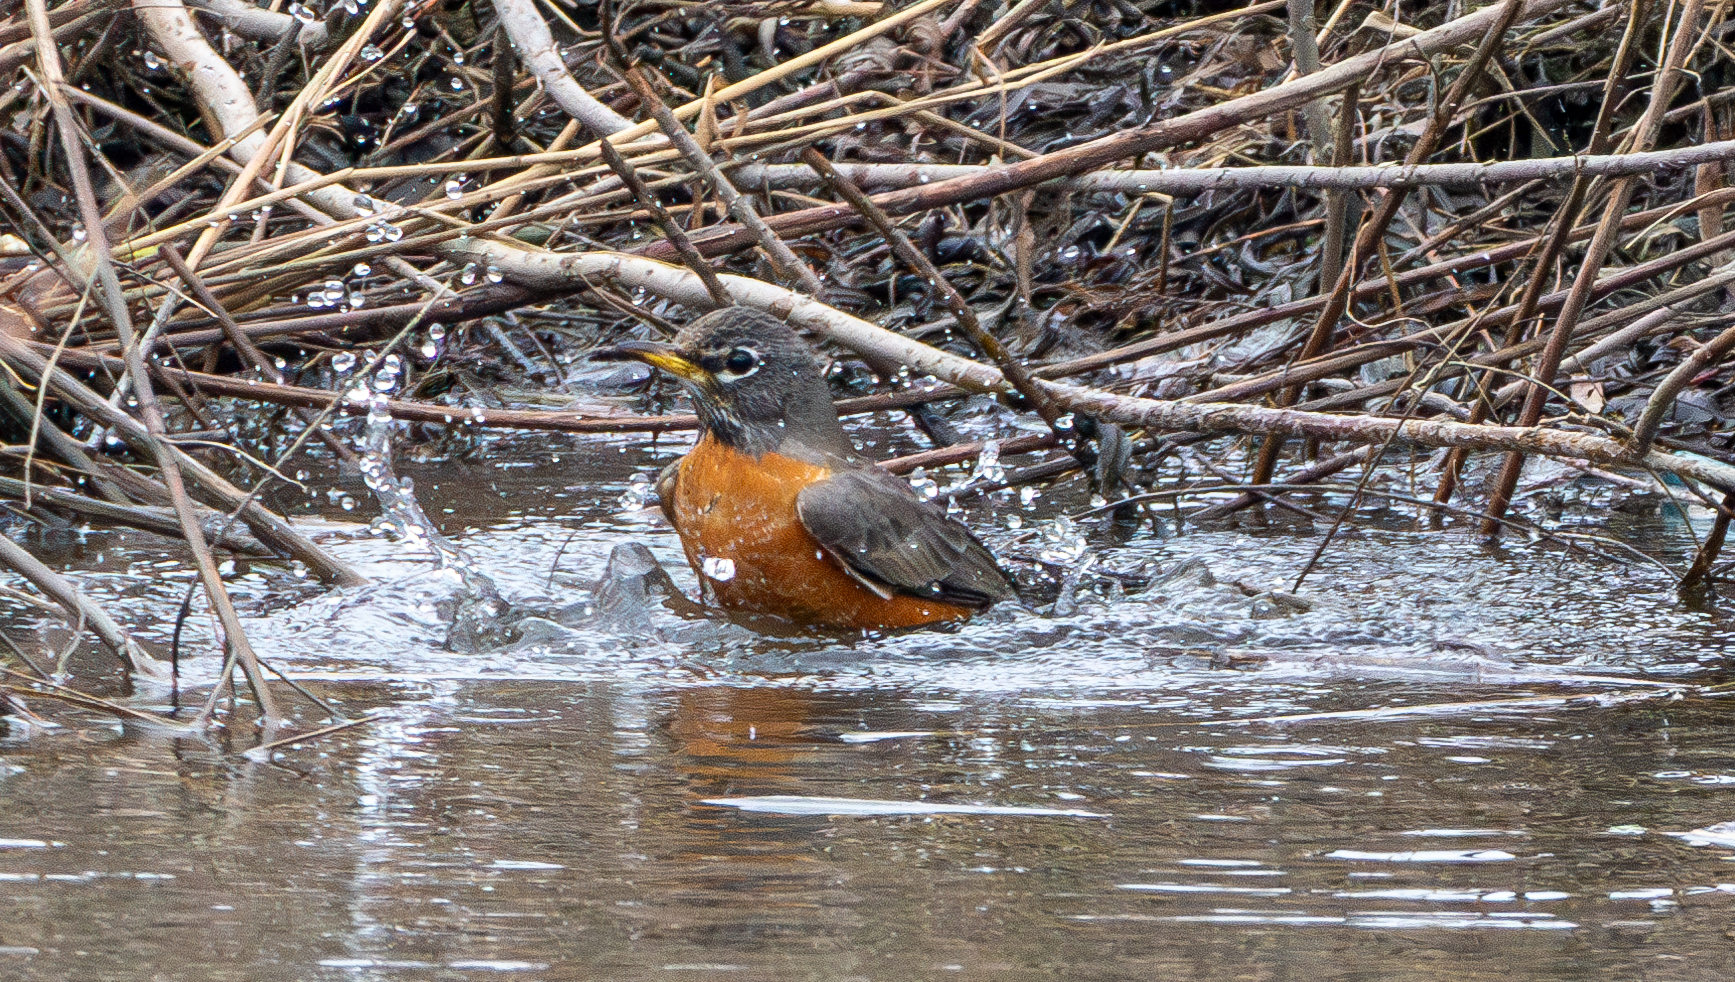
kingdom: Animalia
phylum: Chordata
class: Aves
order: Passeriformes
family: Turdidae
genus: Turdus
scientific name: Turdus migratorius
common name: American robin
